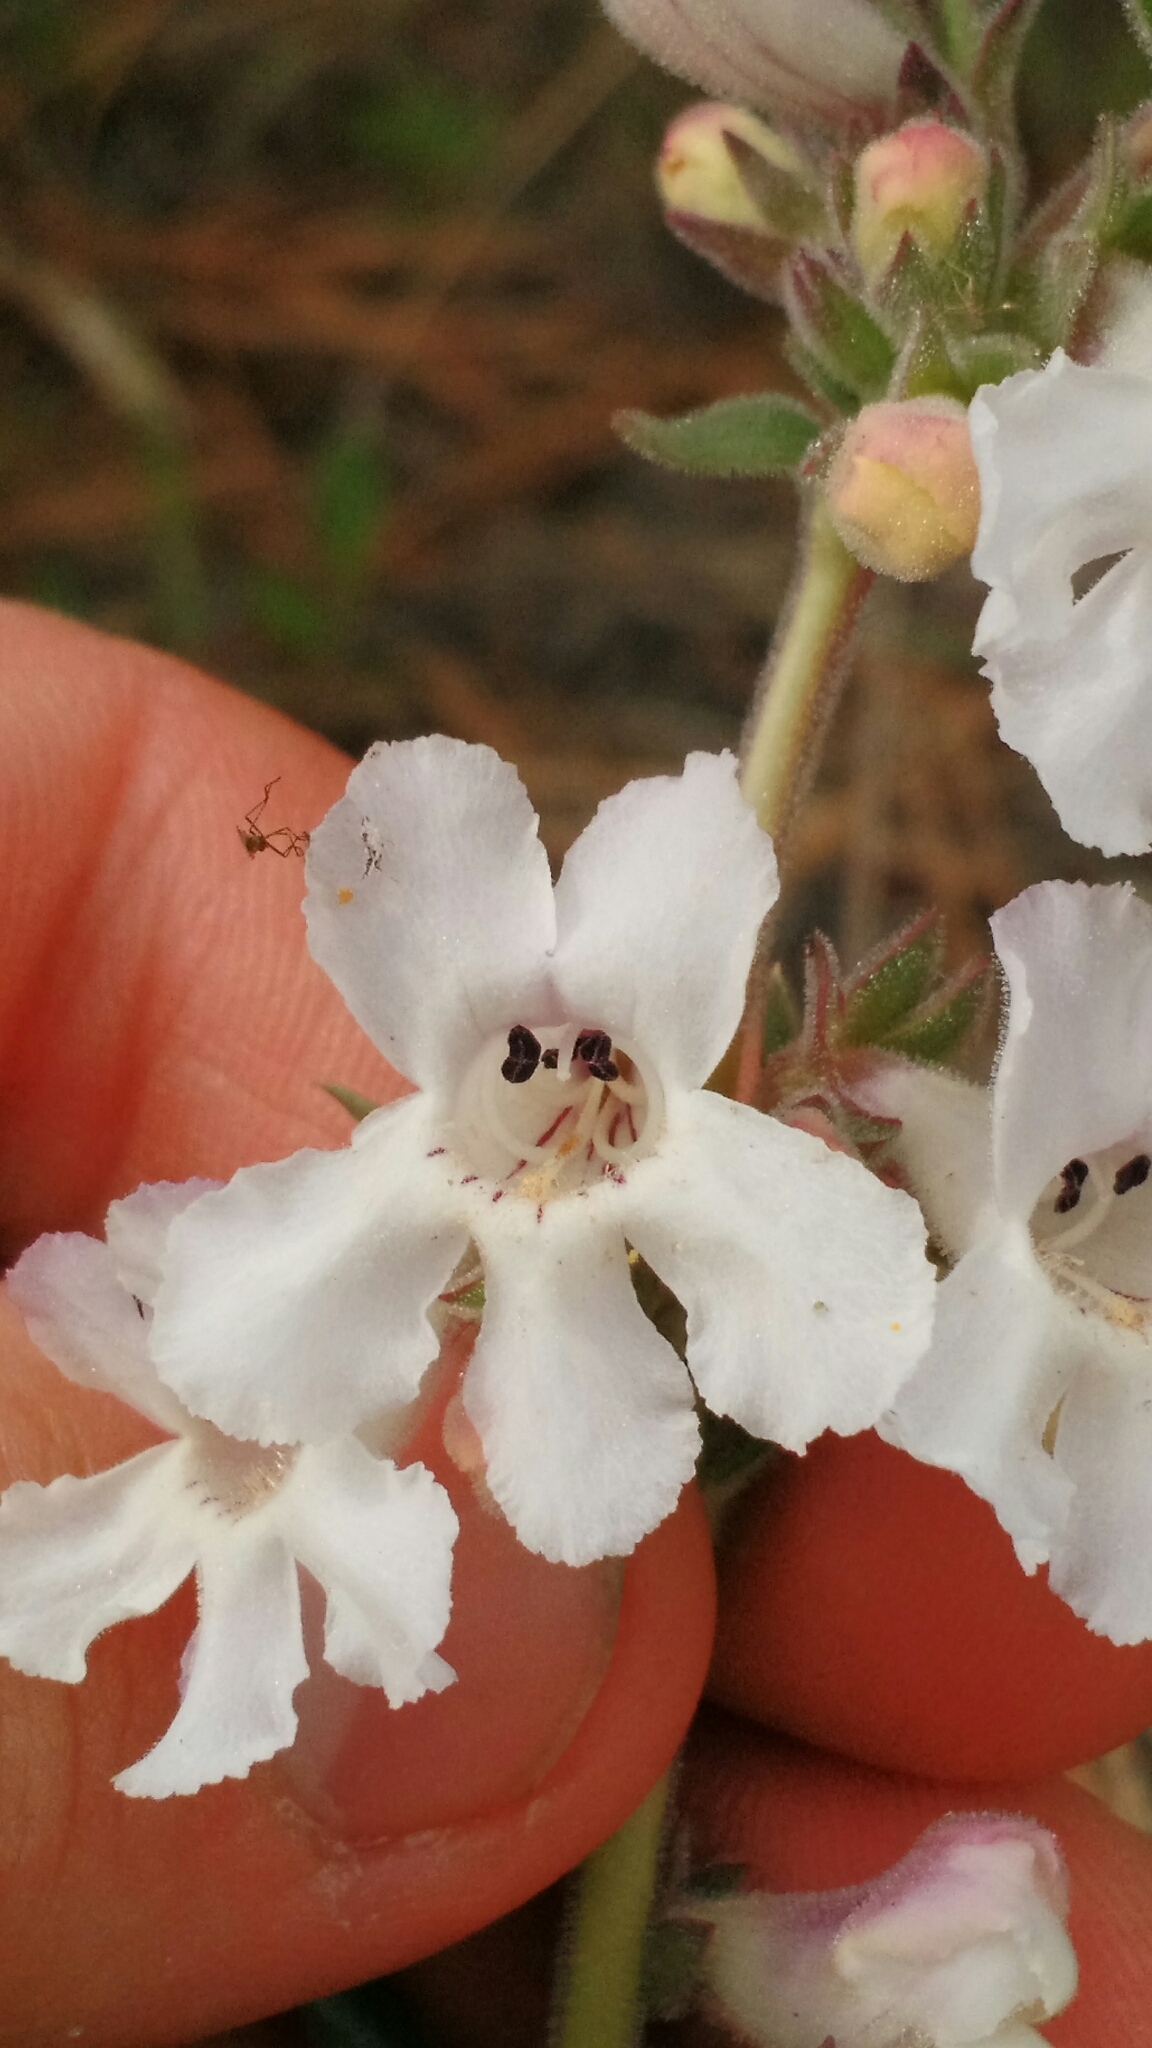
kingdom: Plantae
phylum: Tracheophyta
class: Magnoliopsida
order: Lamiales
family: Plantaginaceae
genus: Penstemon
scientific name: Penstemon albidus
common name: White beardtongue
